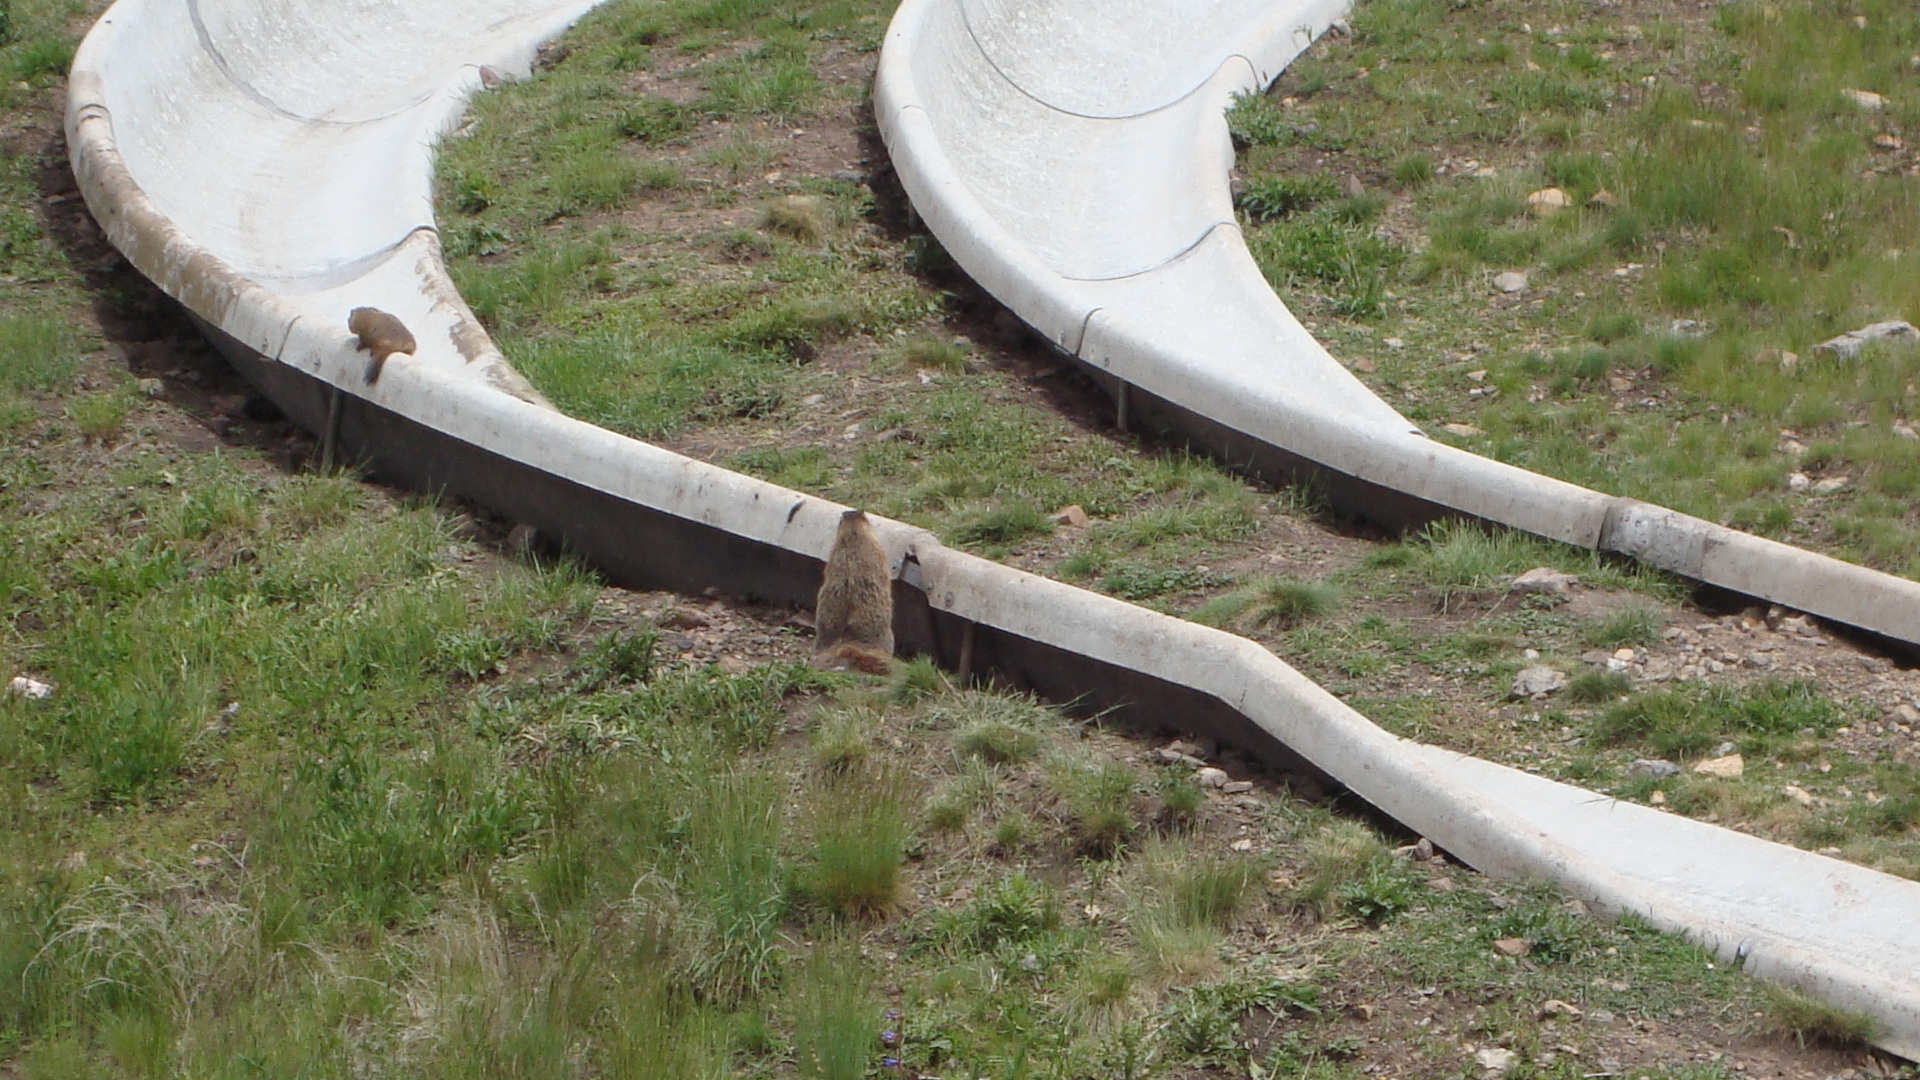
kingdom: Animalia
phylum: Chordata
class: Mammalia
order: Rodentia
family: Sciuridae
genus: Marmota
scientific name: Marmota flaviventris
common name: Yellow-bellied marmot
